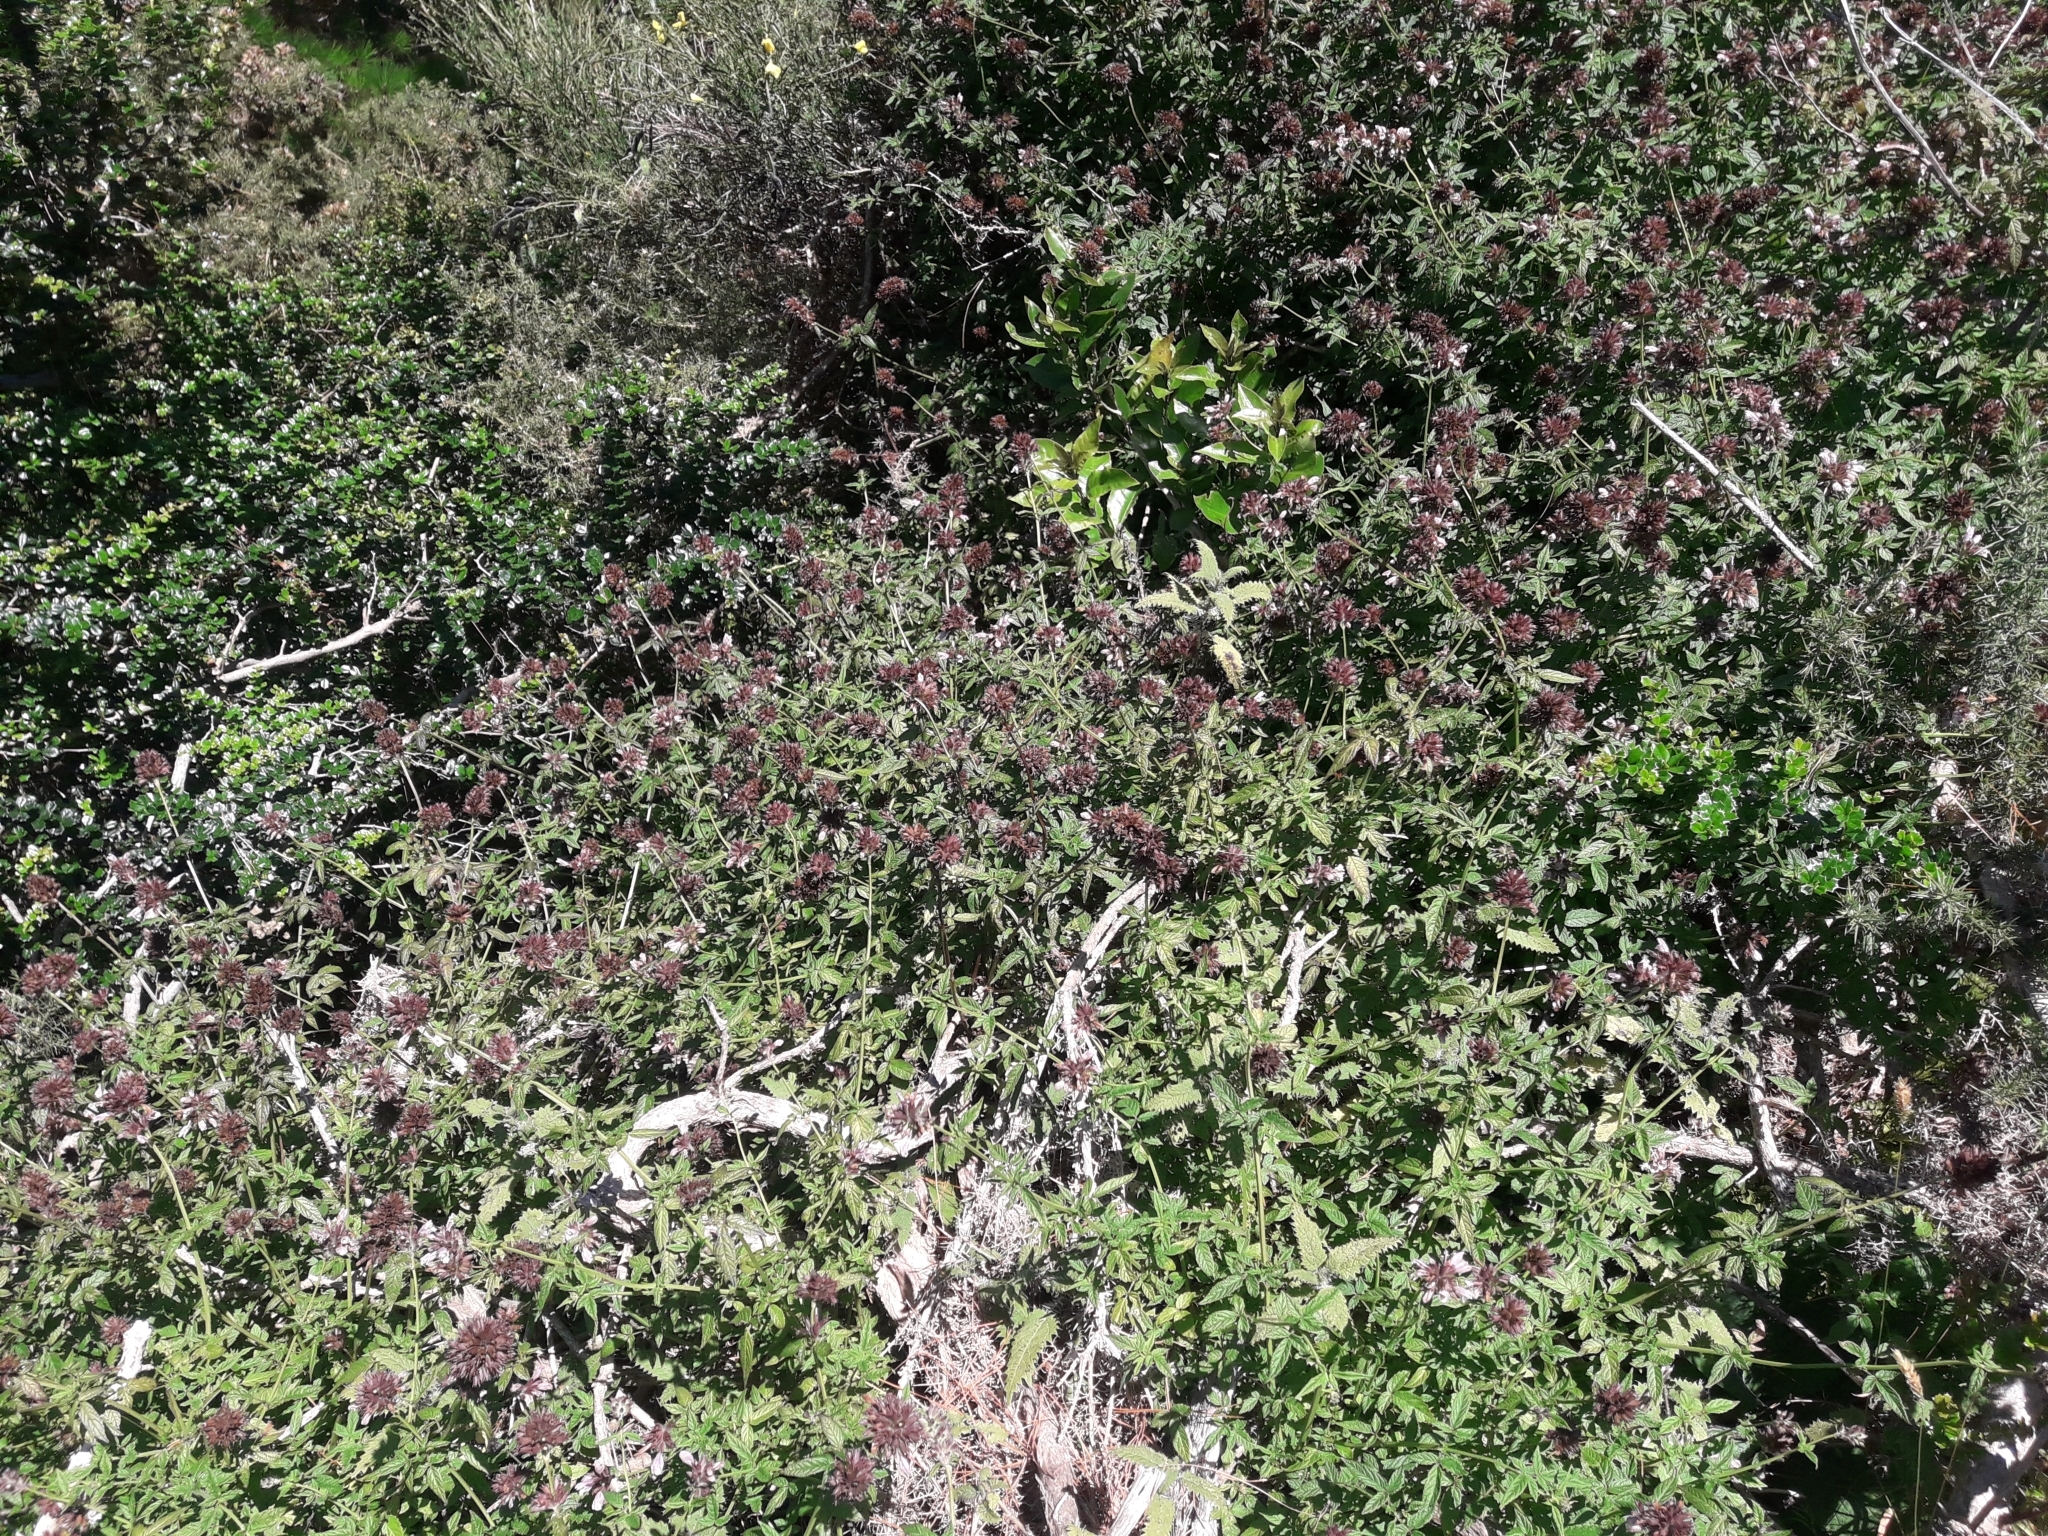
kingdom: Plantae
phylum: Tracheophyta
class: Magnoliopsida
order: Lamiales
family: Lamiaceae
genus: Cedronella
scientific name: Cedronella canariensis
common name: Canary islands balm
